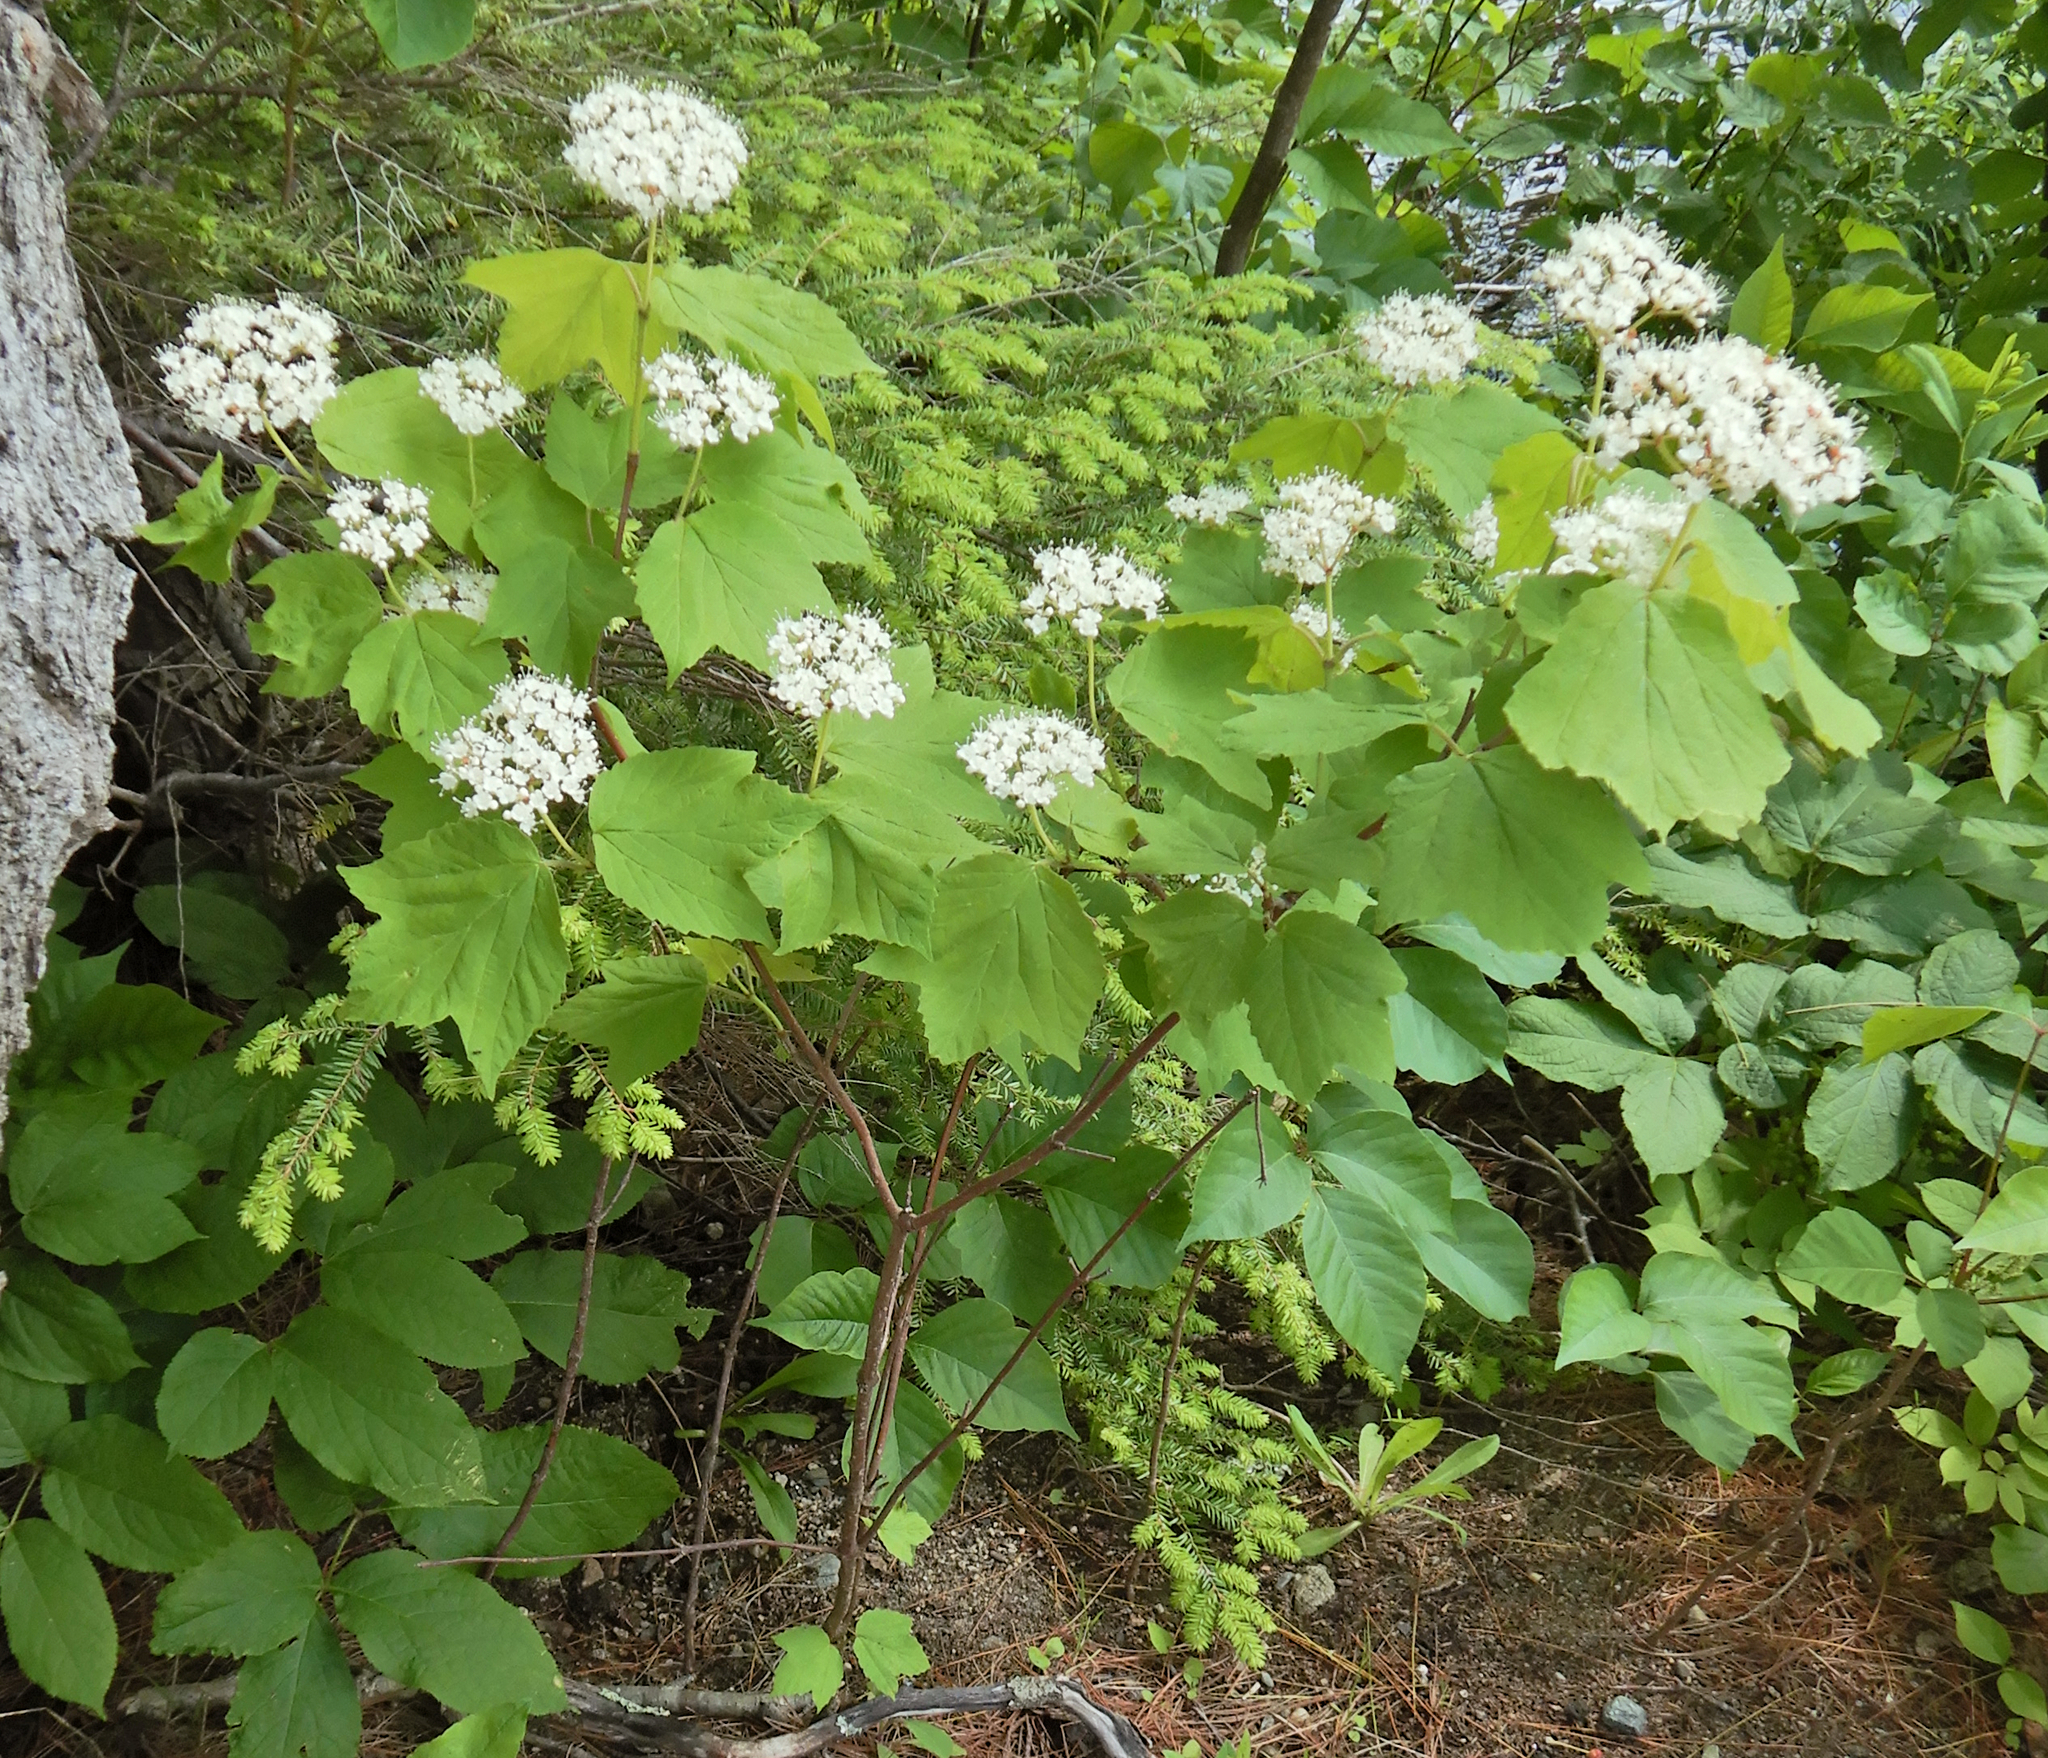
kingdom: Plantae
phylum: Tracheophyta
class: Magnoliopsida
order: Dipsacales
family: Viburnaceae
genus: Viburnum
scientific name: Viburnum acerifolium
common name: Dockmackie
